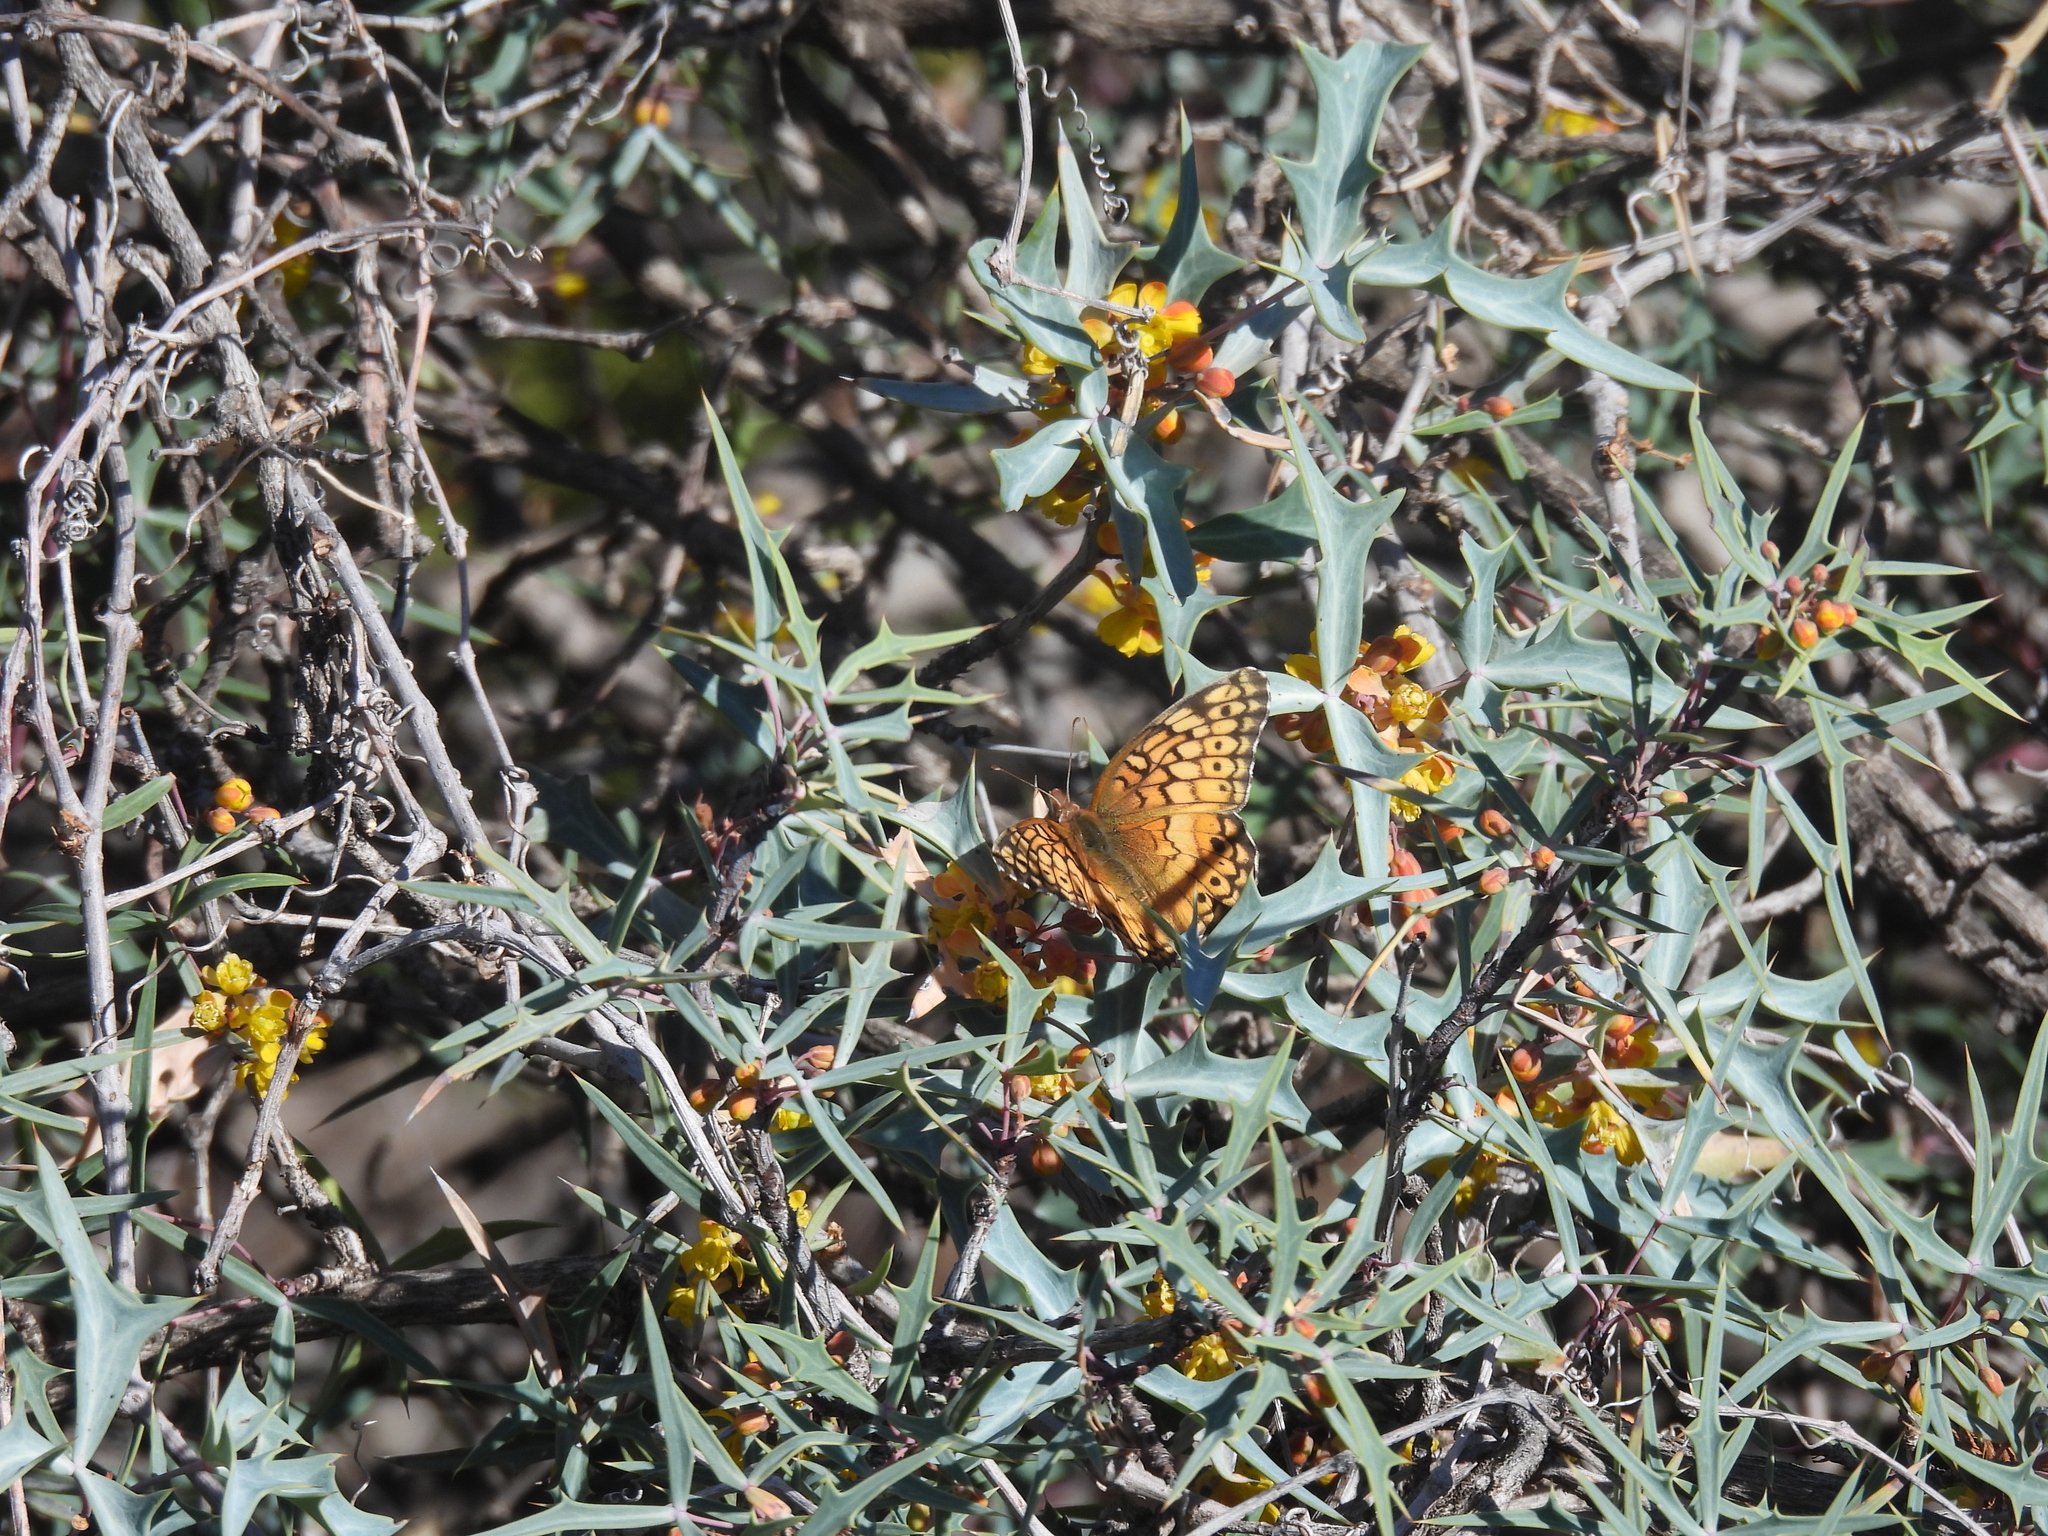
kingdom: Animalia
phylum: Arthropoda
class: Insecta
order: Lepidoptera
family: Nymphalidae
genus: Euptoieta
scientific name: Euptoieta claudia
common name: Variegated fritillary
